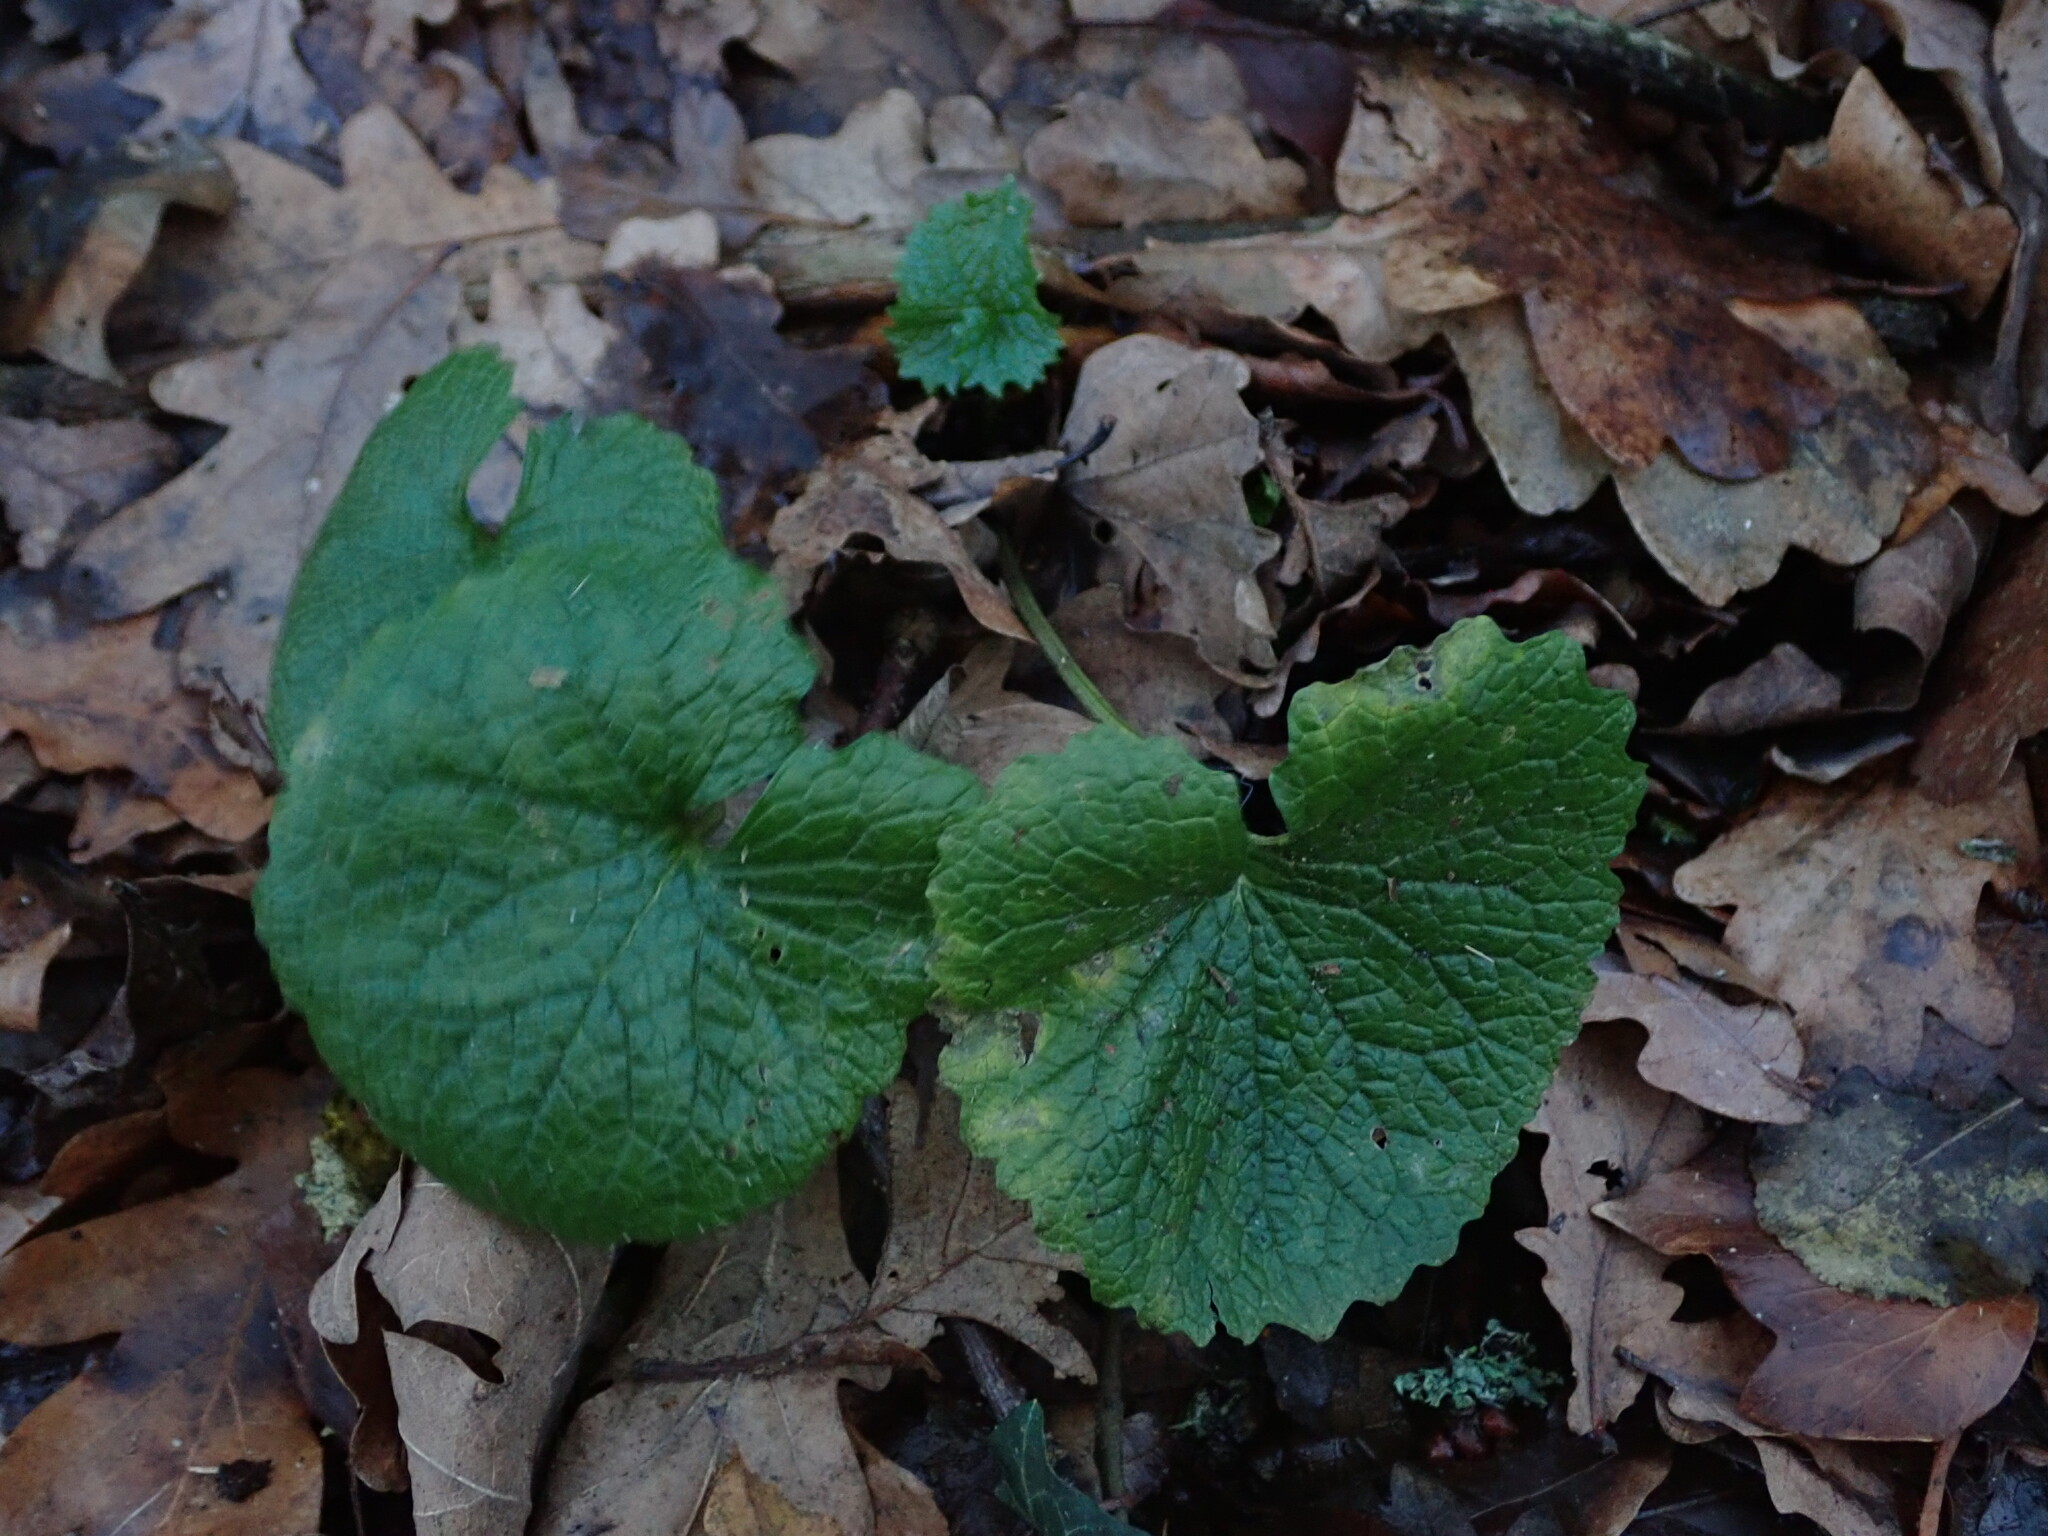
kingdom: Plantae
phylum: Tracheophyta
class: Magnoliopsida
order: Brassicales
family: Brassicaceae
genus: Alliaria
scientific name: Alliaria petiolata
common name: Garlic mustard
